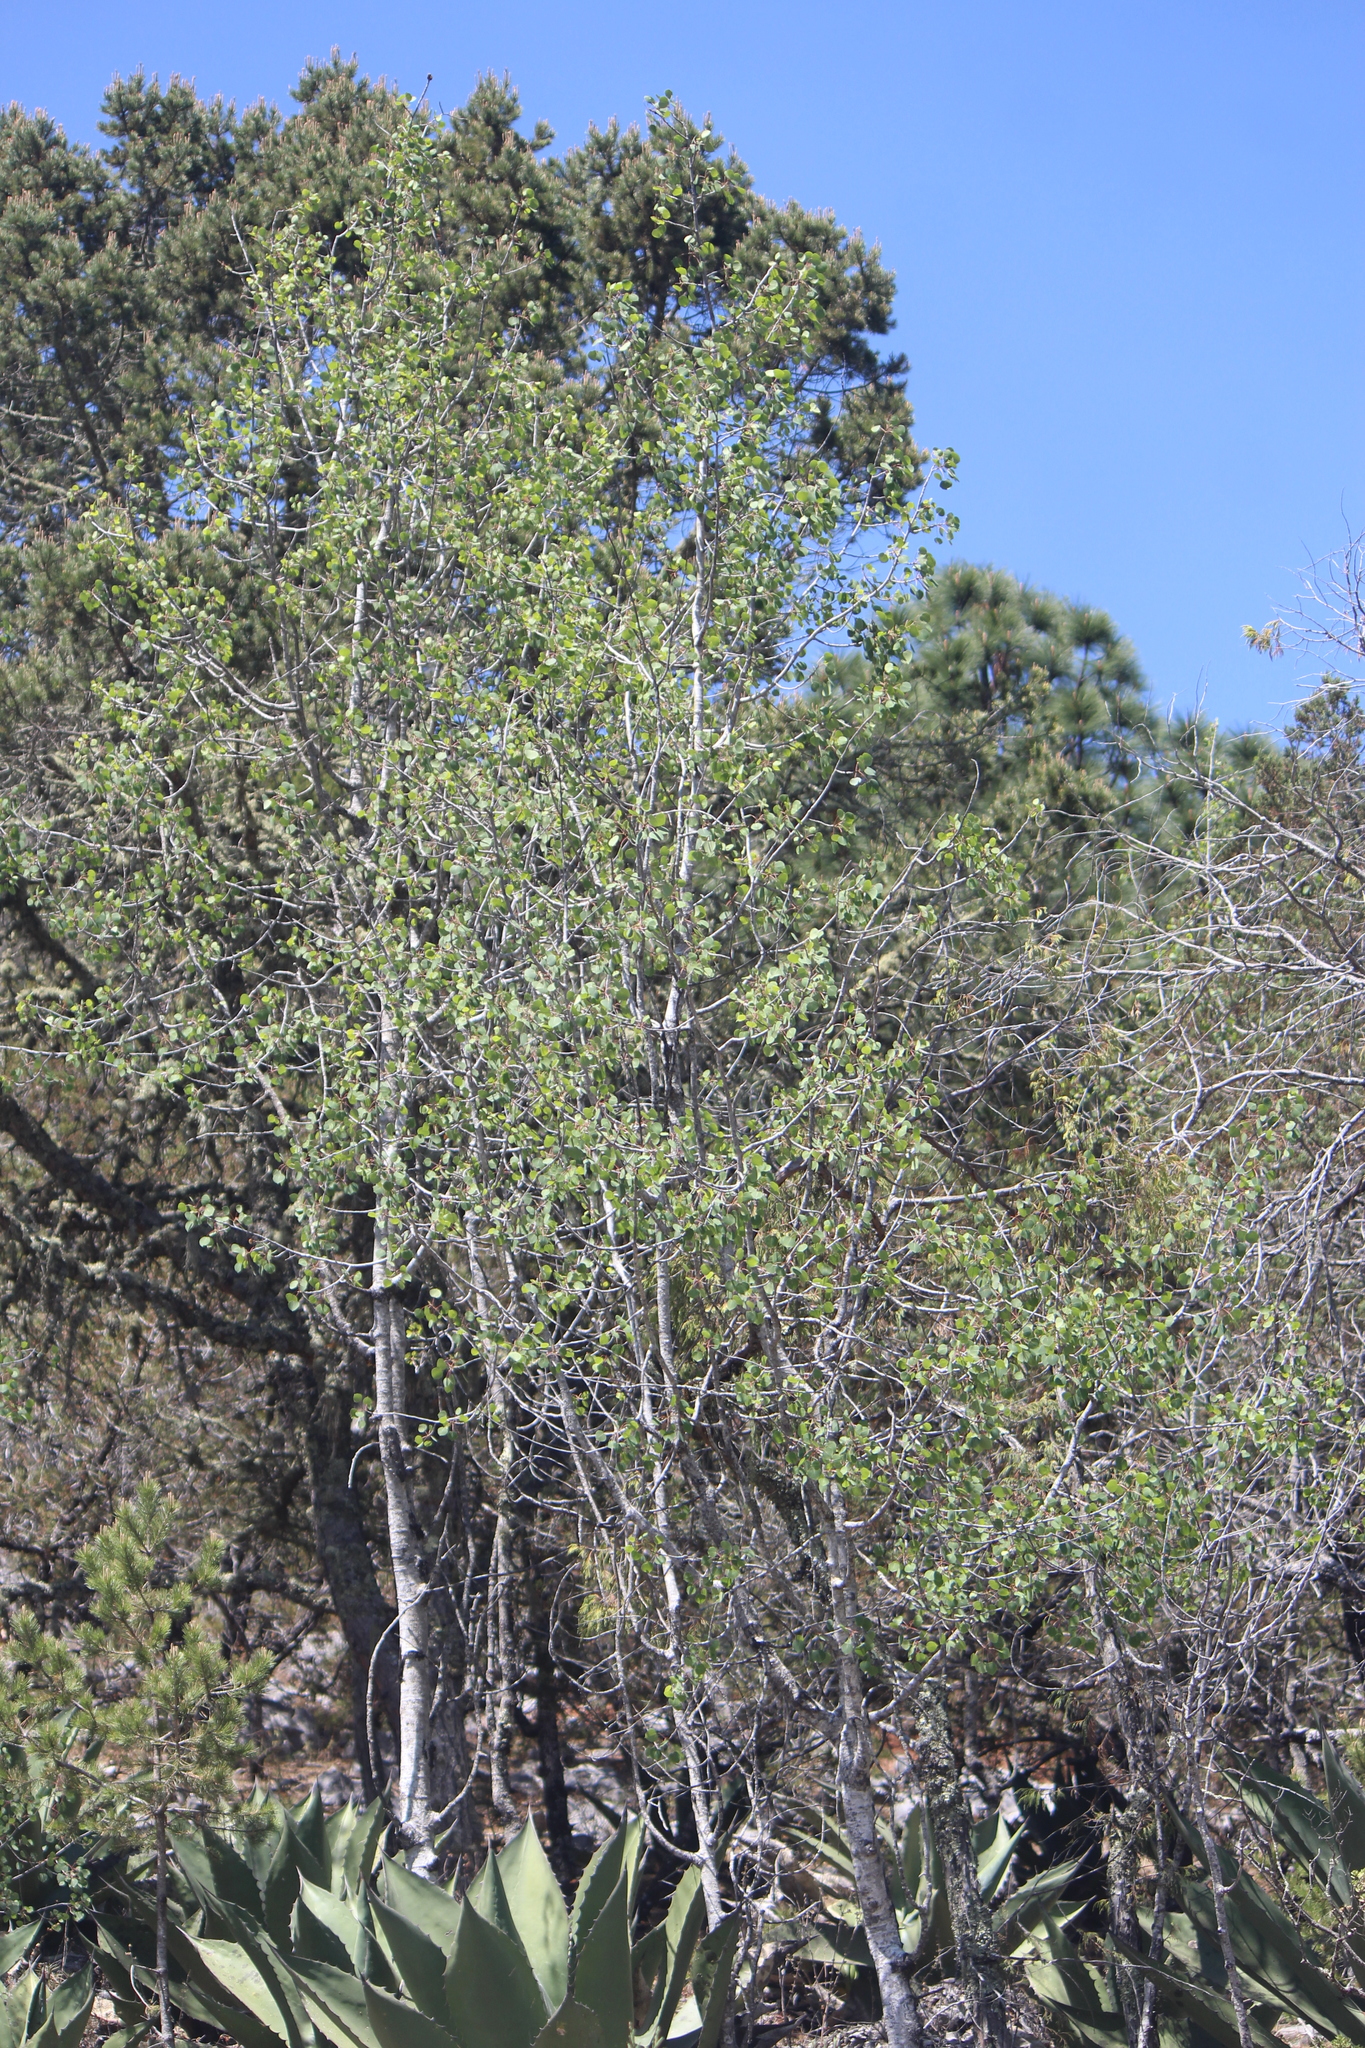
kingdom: Plantae
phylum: Tracheophyta
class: Magnoliopsida
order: Malpighiales
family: Salicaceae
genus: Populus
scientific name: Populus tremuloides
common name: Quaking aspen
